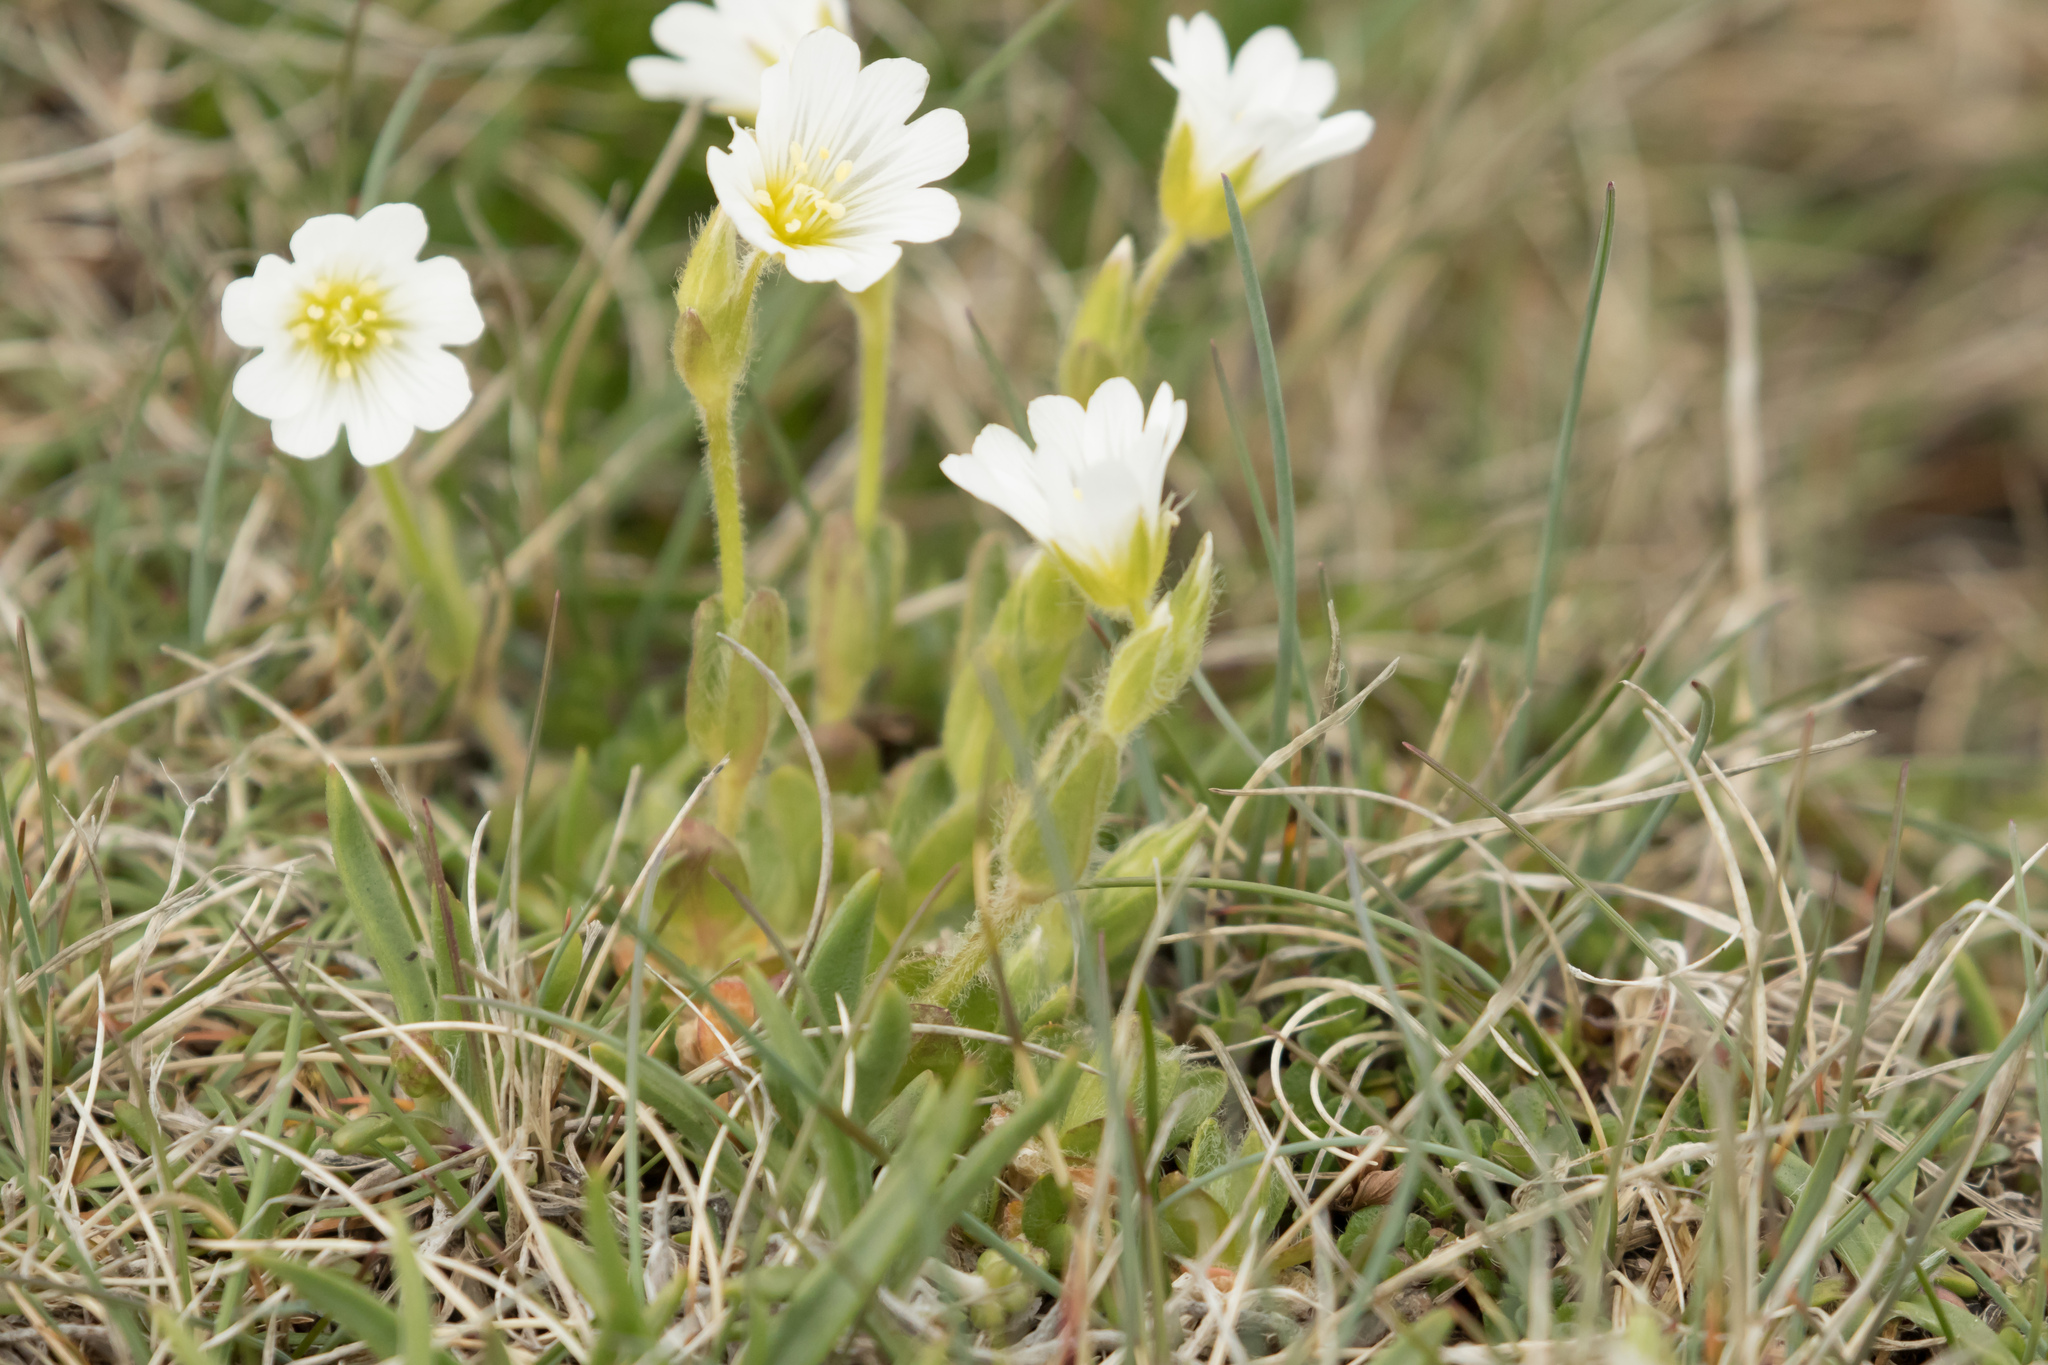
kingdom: Plantae
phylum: Tracheophyta
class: Magnoliopsida
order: Caryophyllales
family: Caryophyllaceae
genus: Cerastium
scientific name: Cerastium alpinum
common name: Alpine mouse-ear
